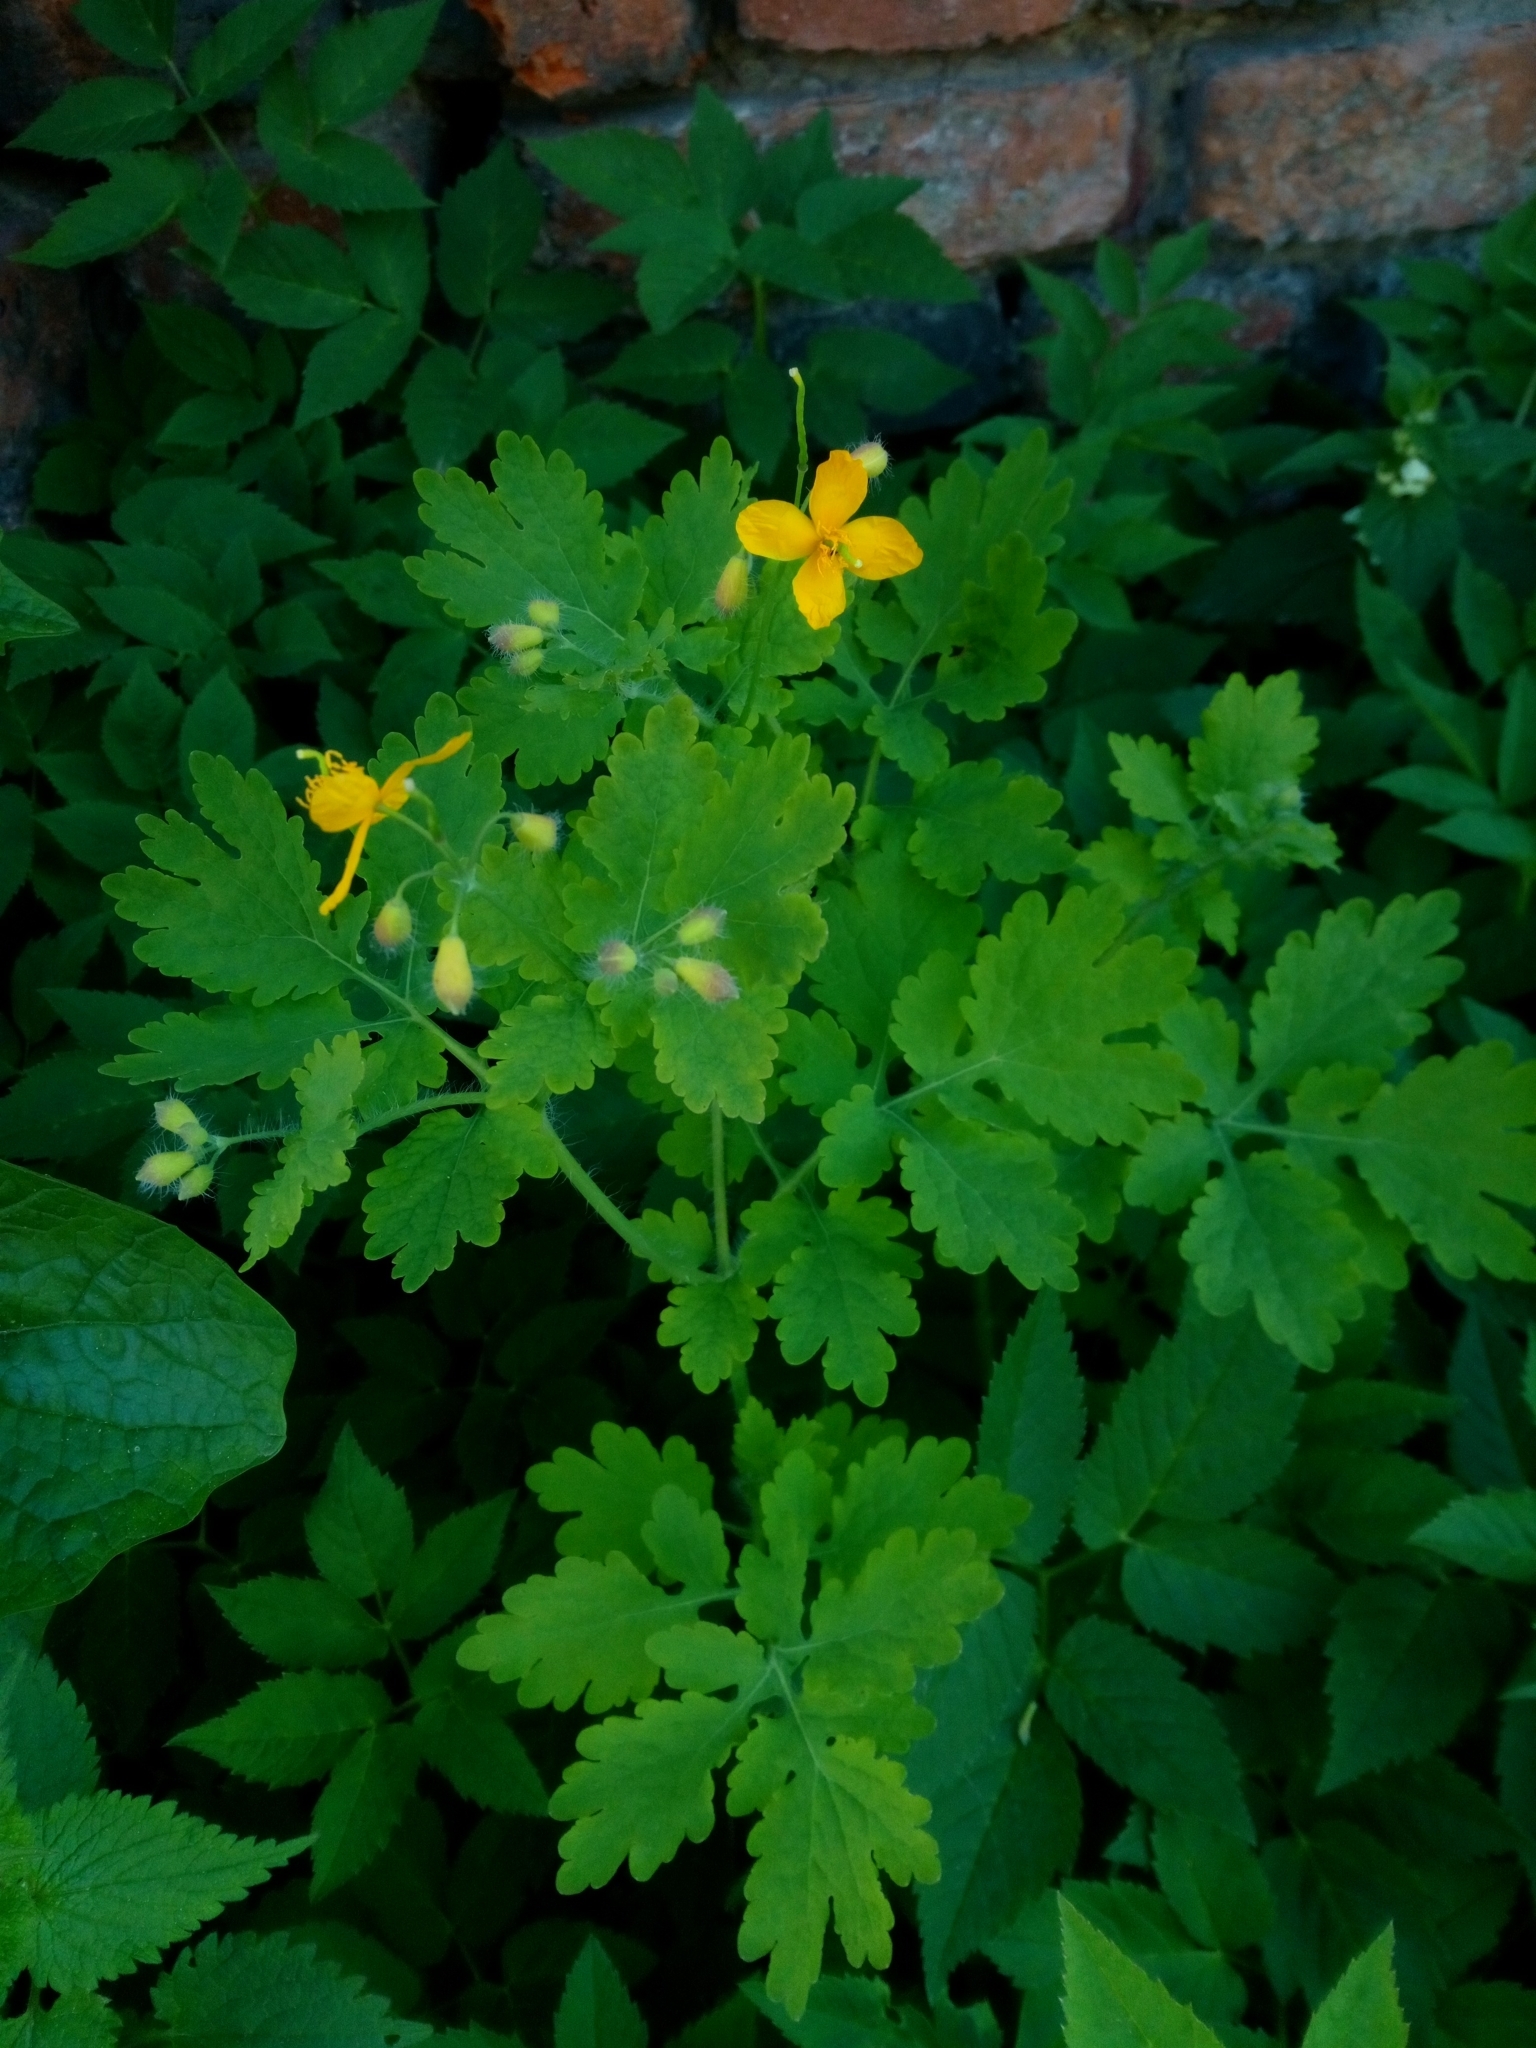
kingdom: Plantae
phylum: Tracheophyta
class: Magnoliopsida
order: Ranunculales
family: Papaveraceae
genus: Chelidonium
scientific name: Chelidonium majus
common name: Greater celandine
